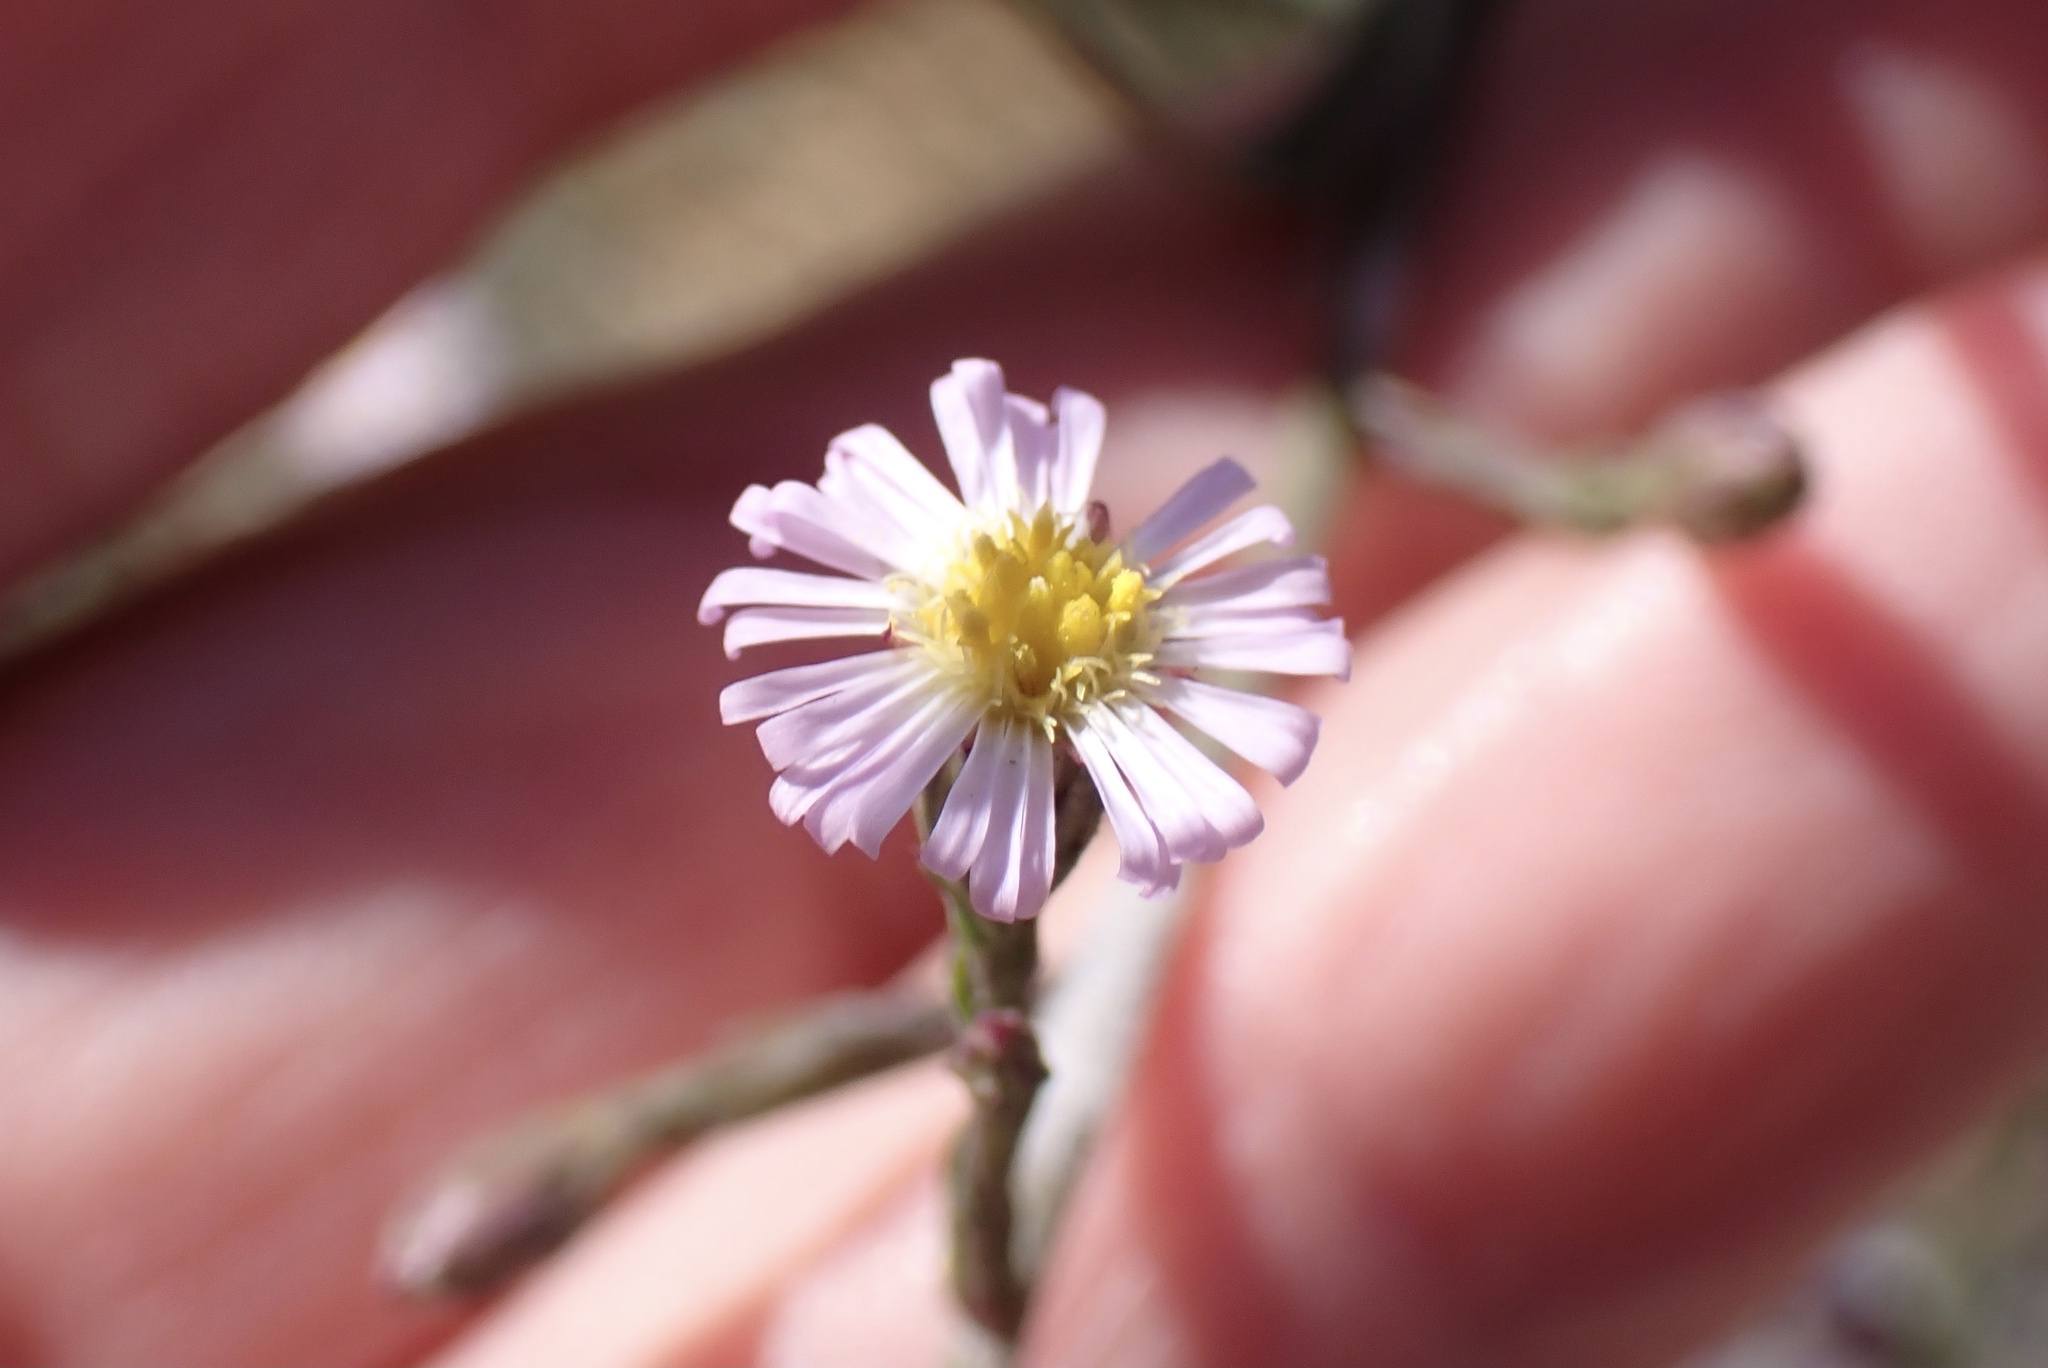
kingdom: Plantae
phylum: Tracheophyta
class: Magnoliopsida
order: Asterales
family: Asteraceae
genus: Symphyotrichum
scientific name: Symphyotrichum expansum
